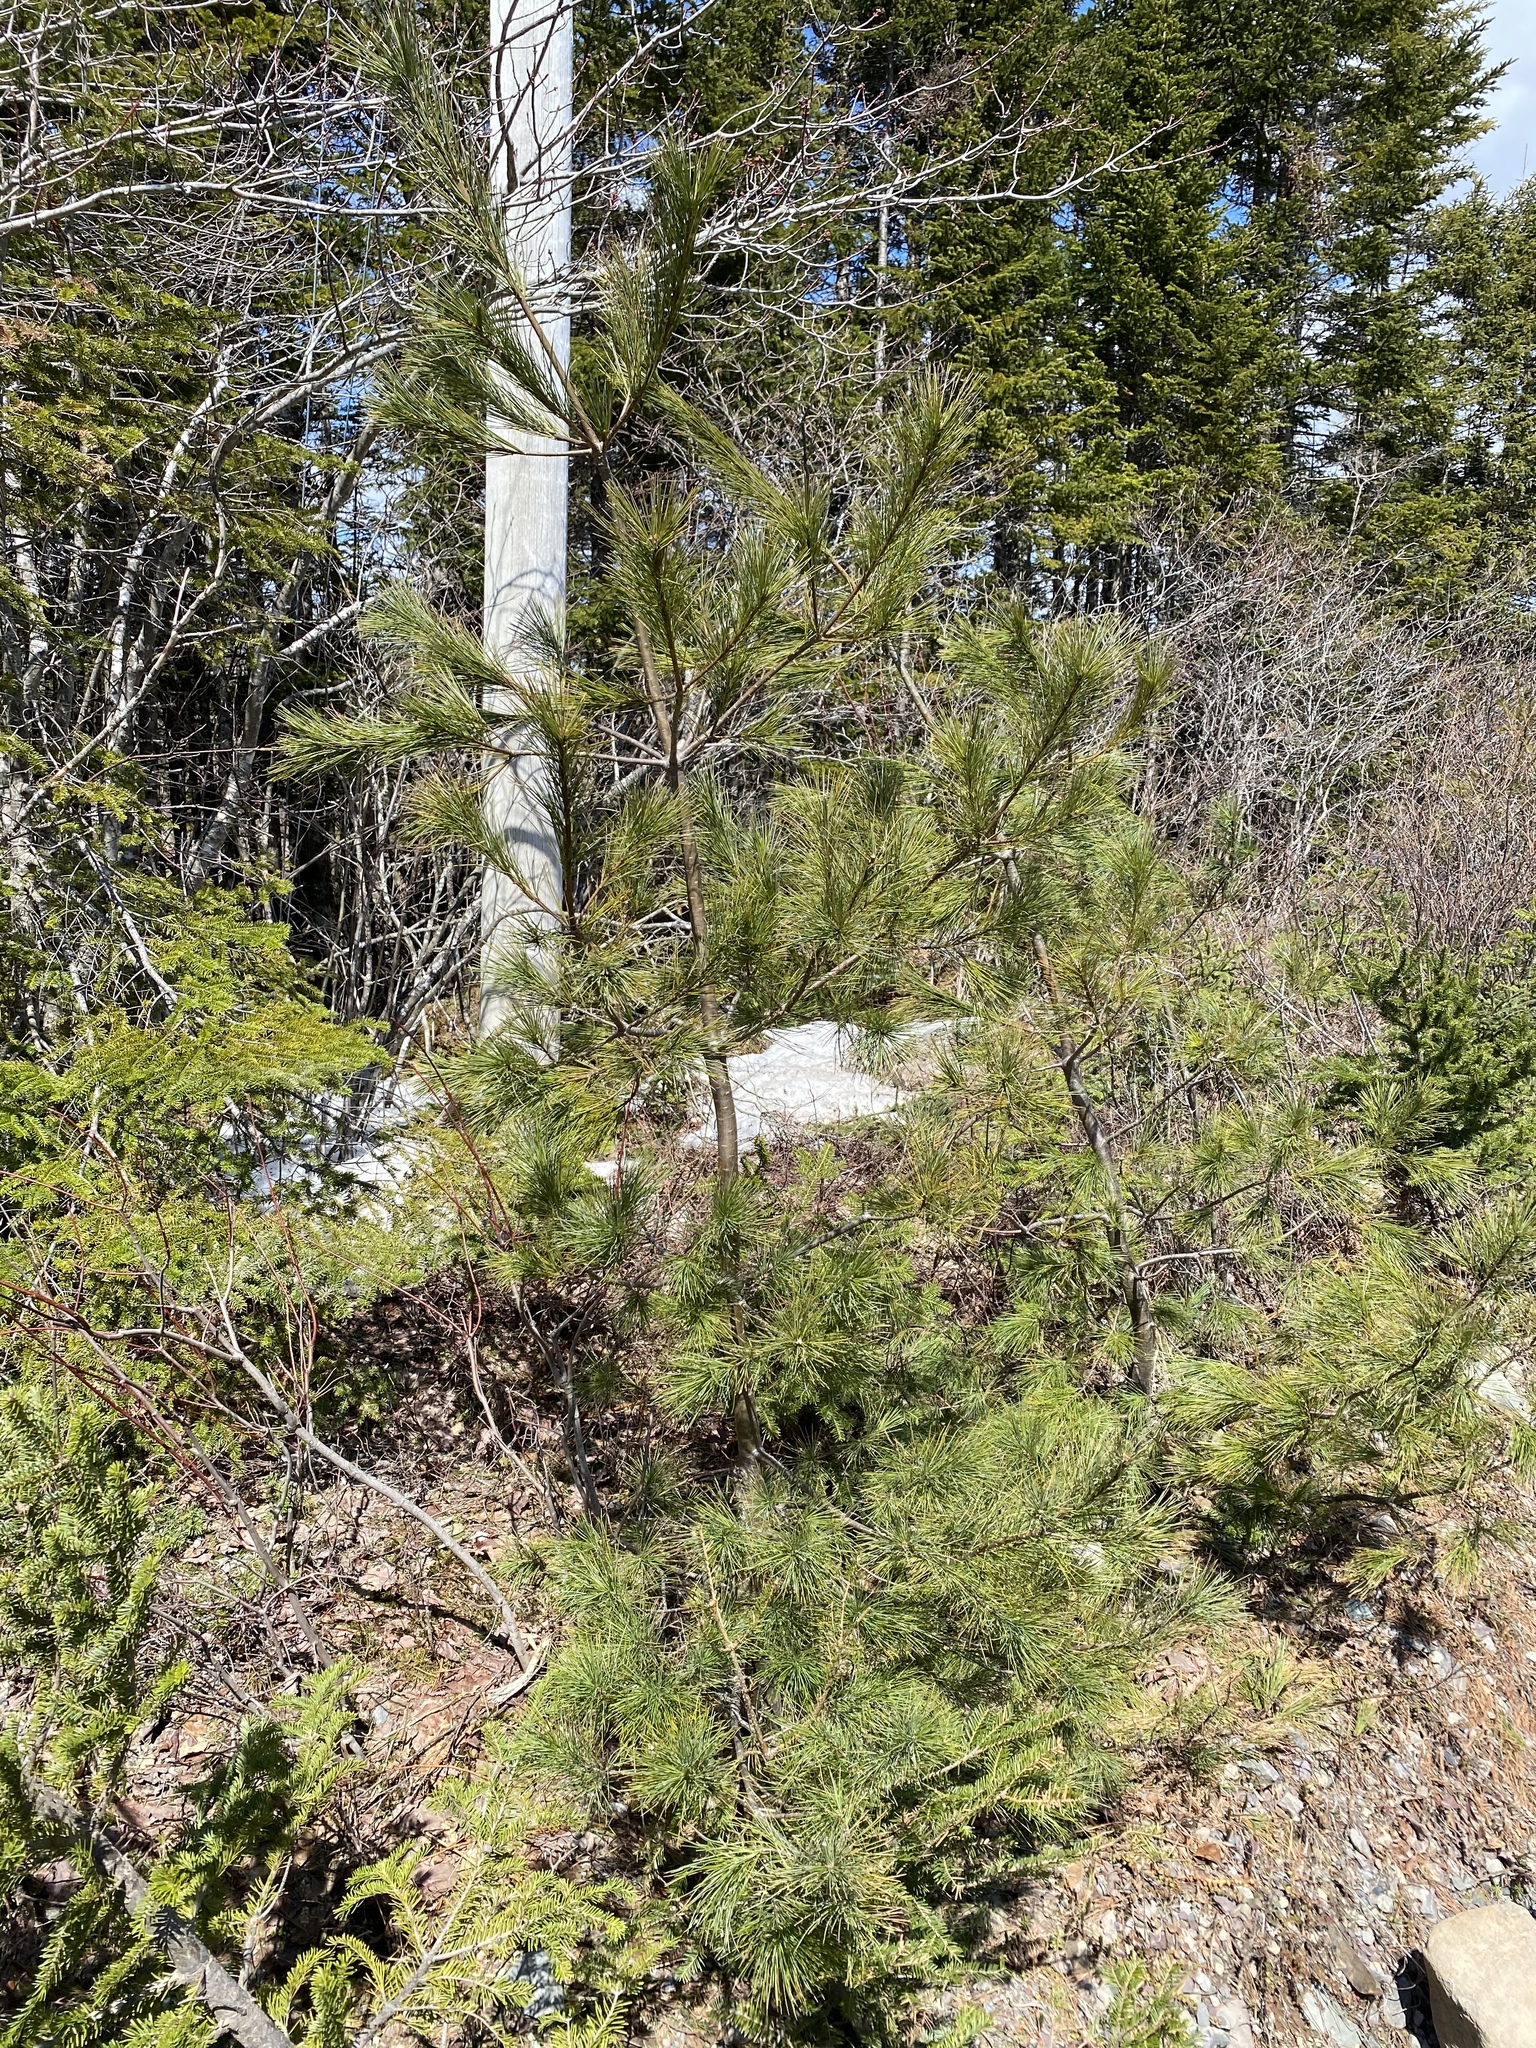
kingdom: Plantae
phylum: Tracheophyta
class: Pinopsida
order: Pinales
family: Pinaceae
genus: Pinus
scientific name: Pinus strobus
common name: Weymouth pine
